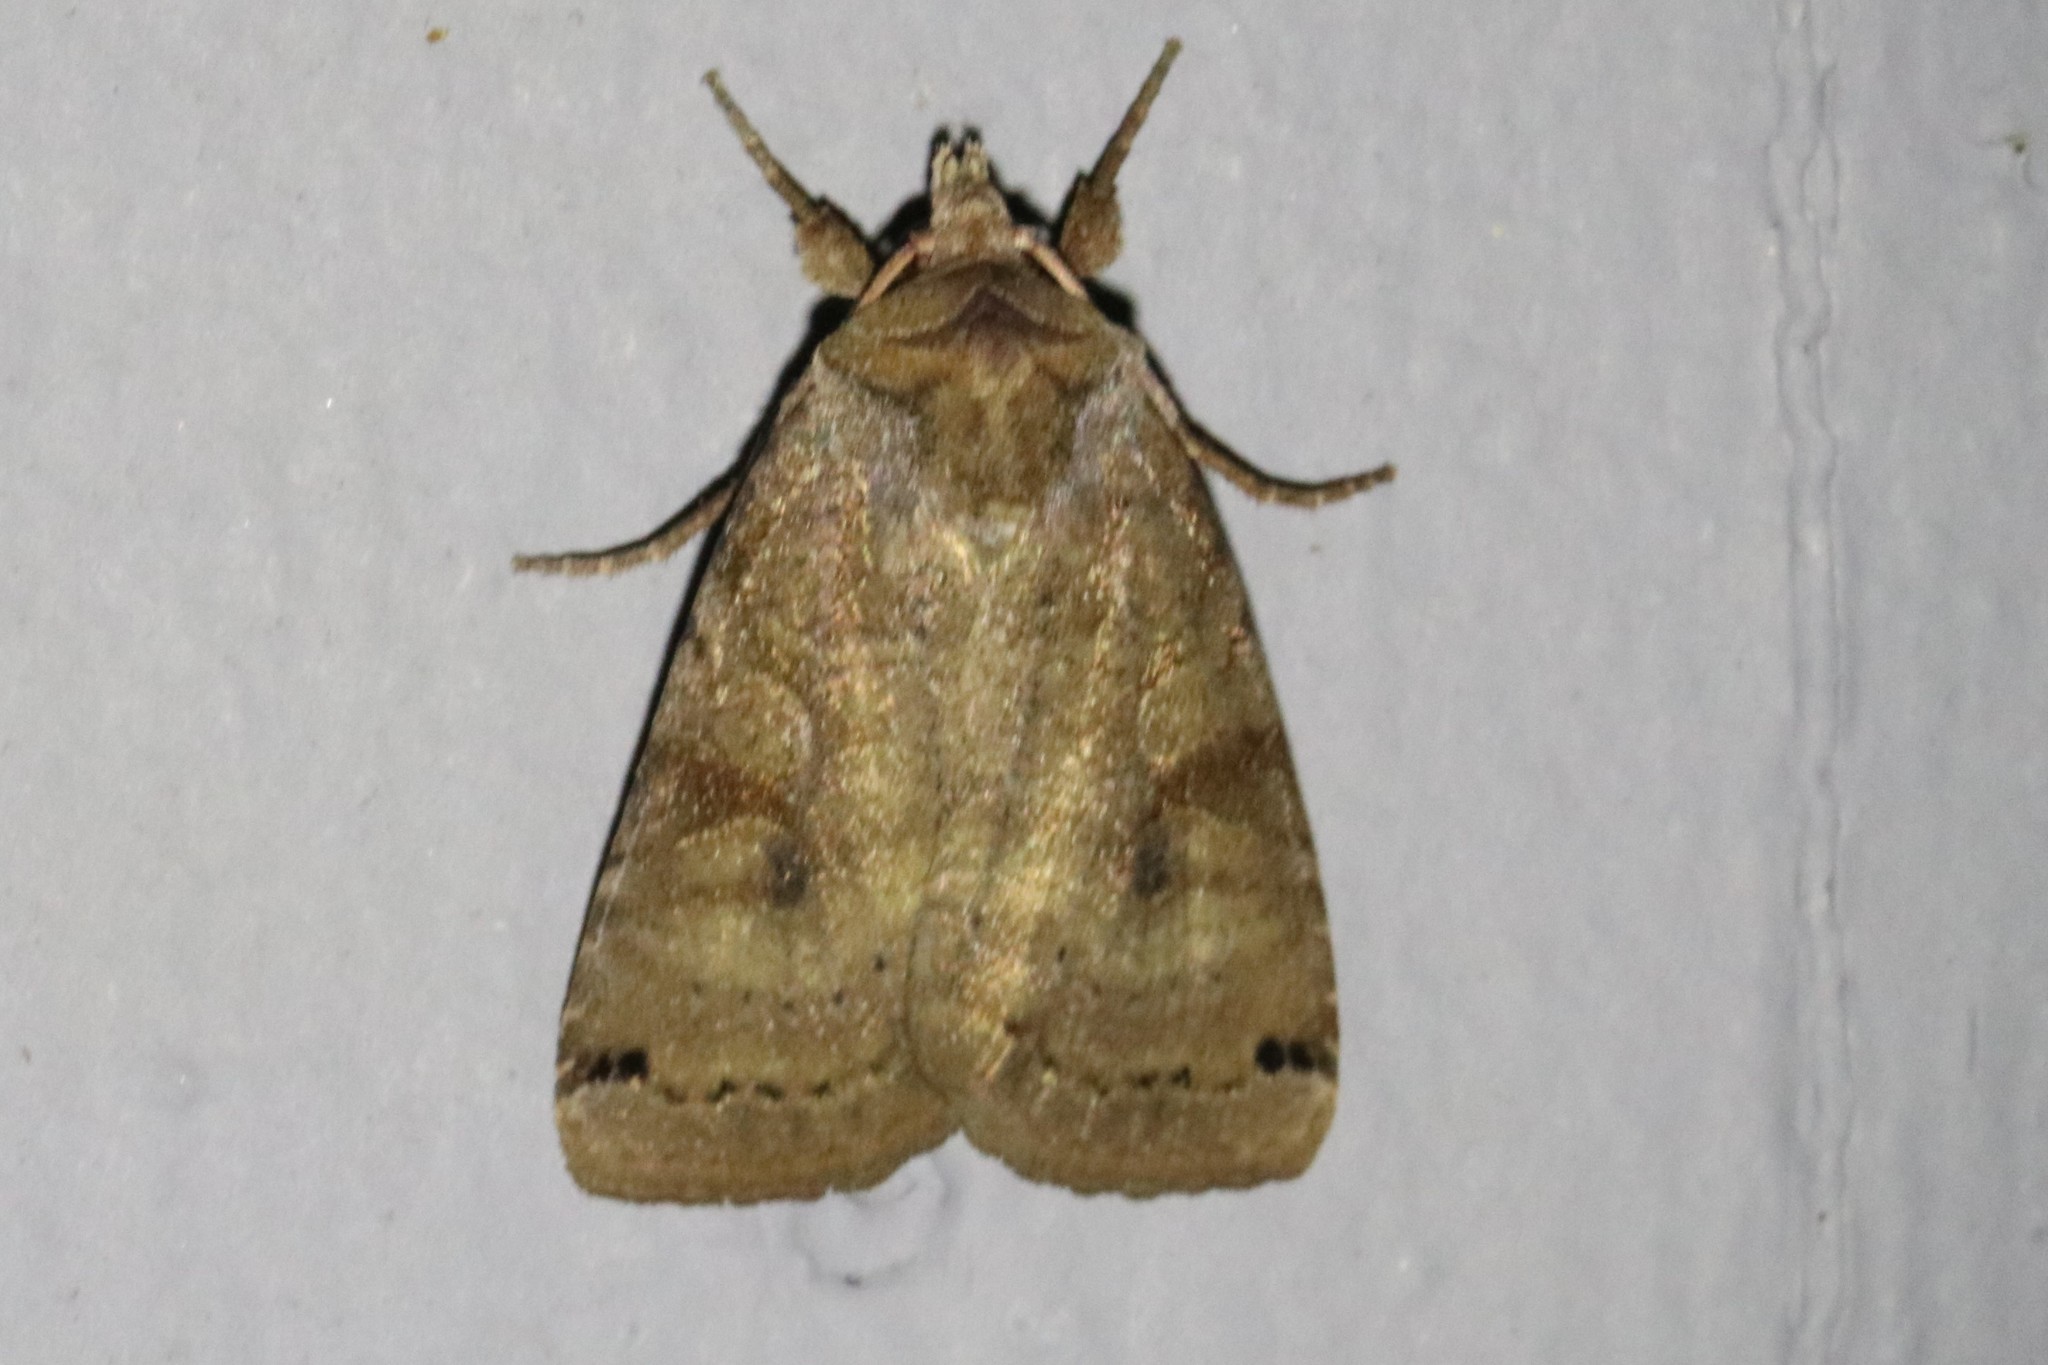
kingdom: Animalia
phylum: Arthropoda
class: Insecta
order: Lepidoptera
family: Noctuidae
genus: Xestia
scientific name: Xestia smithii
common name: Smith's dart
